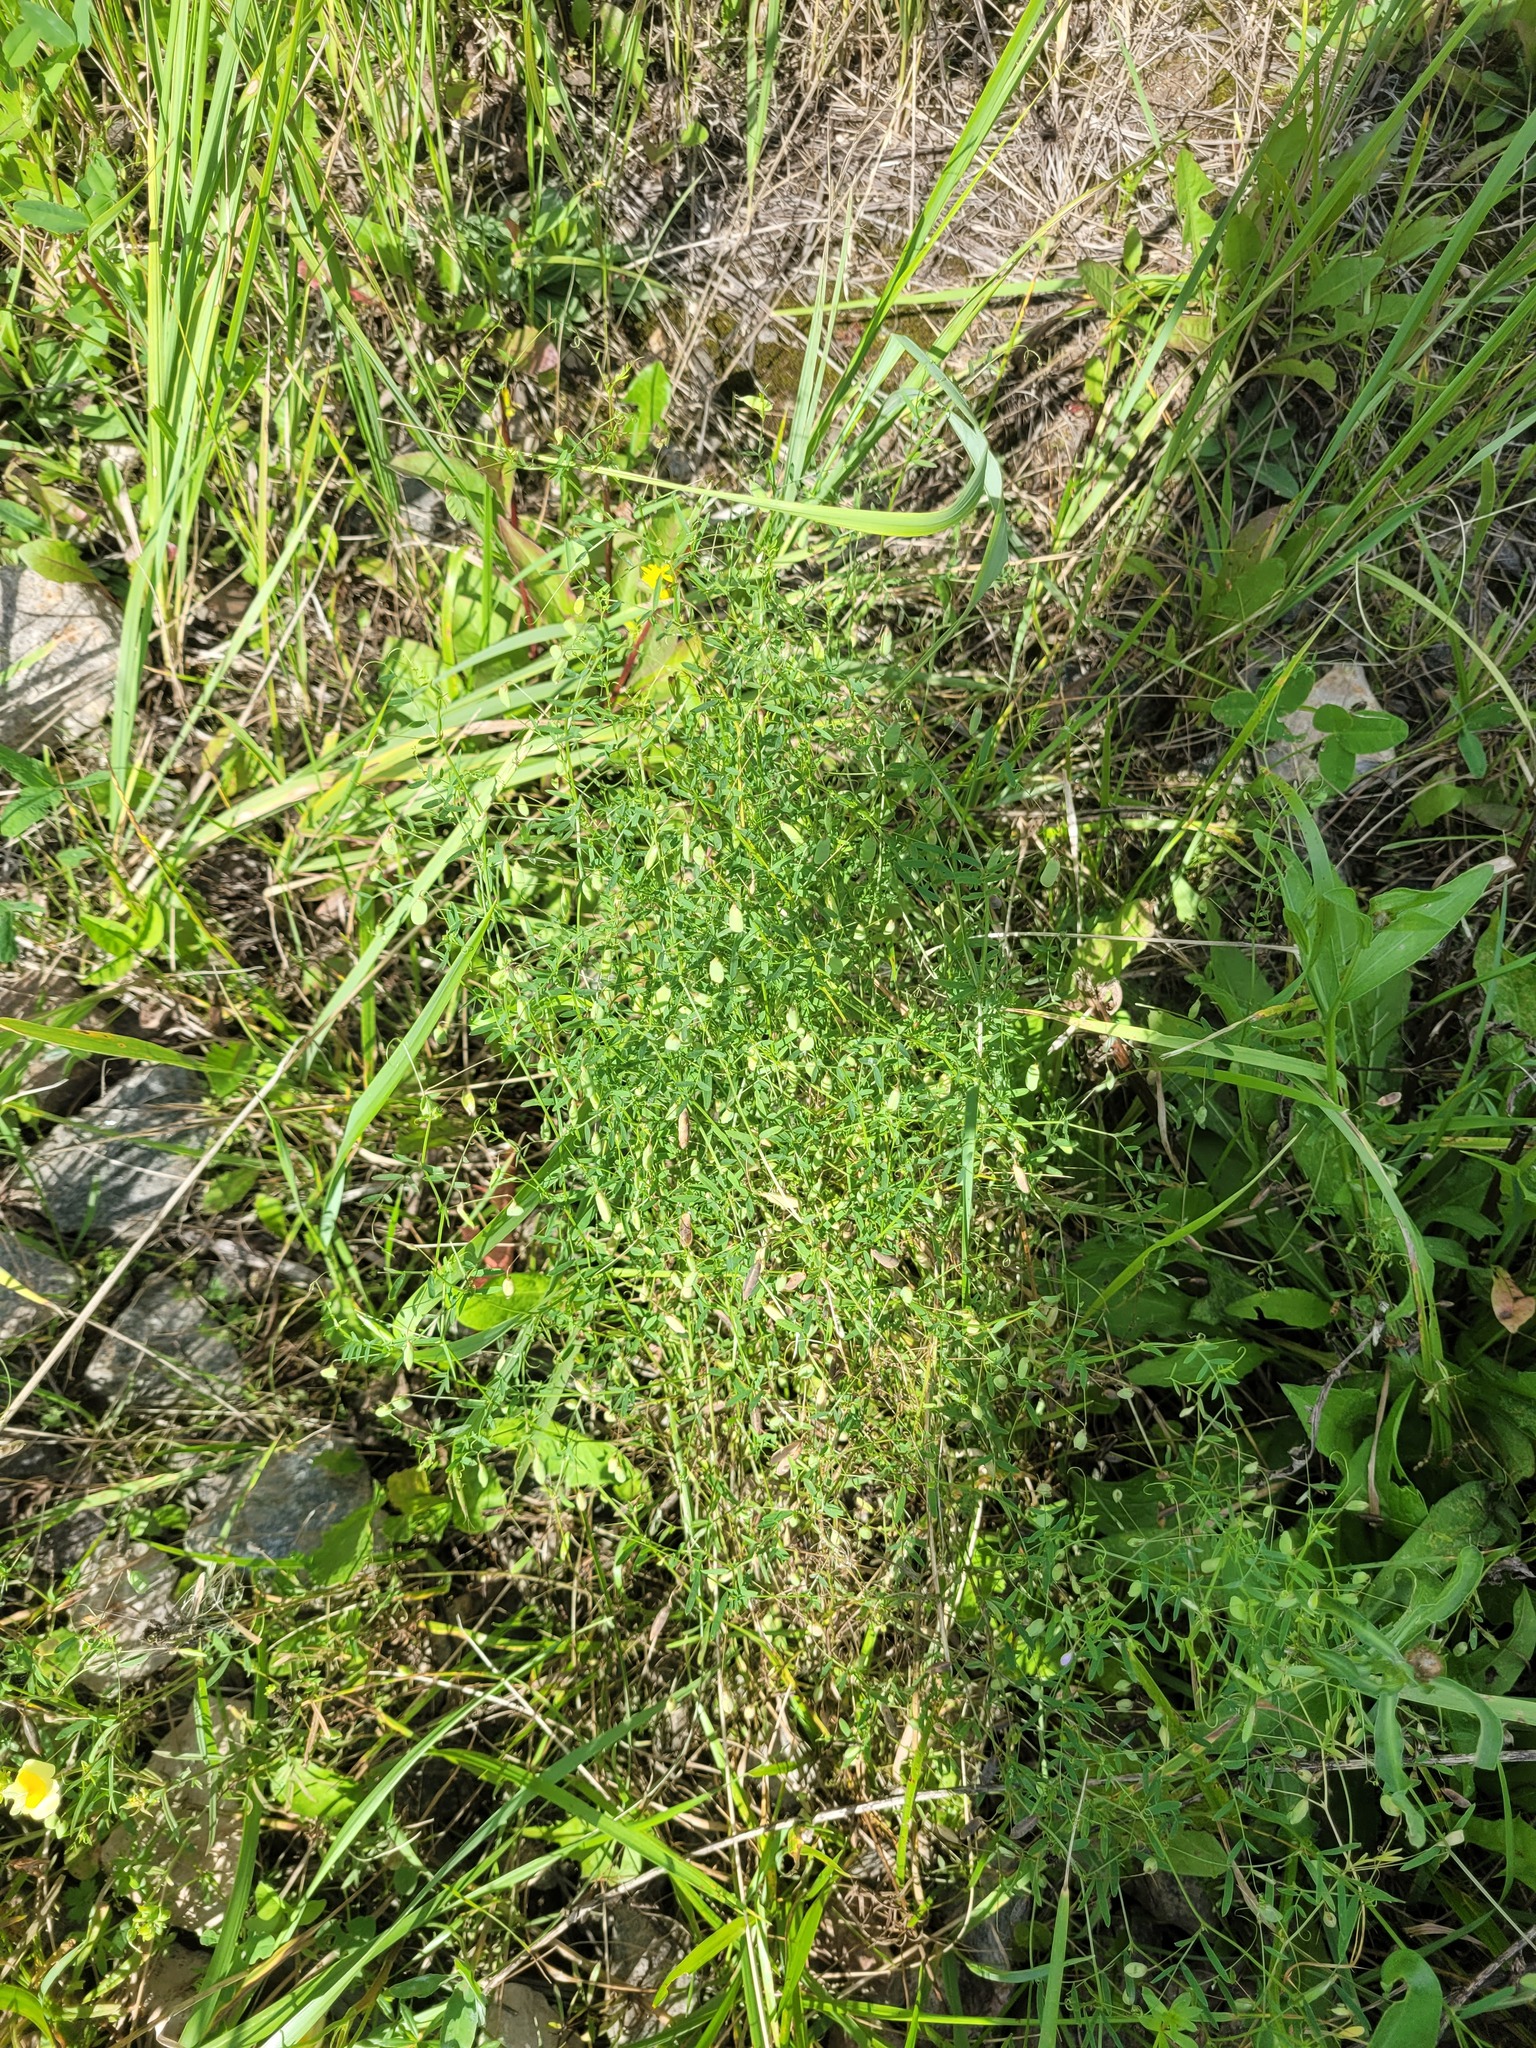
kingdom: Plantae
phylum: Tracheophyta
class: Magnoliopsida
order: Fabales
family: Fabaceae
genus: Vicia
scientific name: Vicia tetrasperma
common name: Smooth tare
